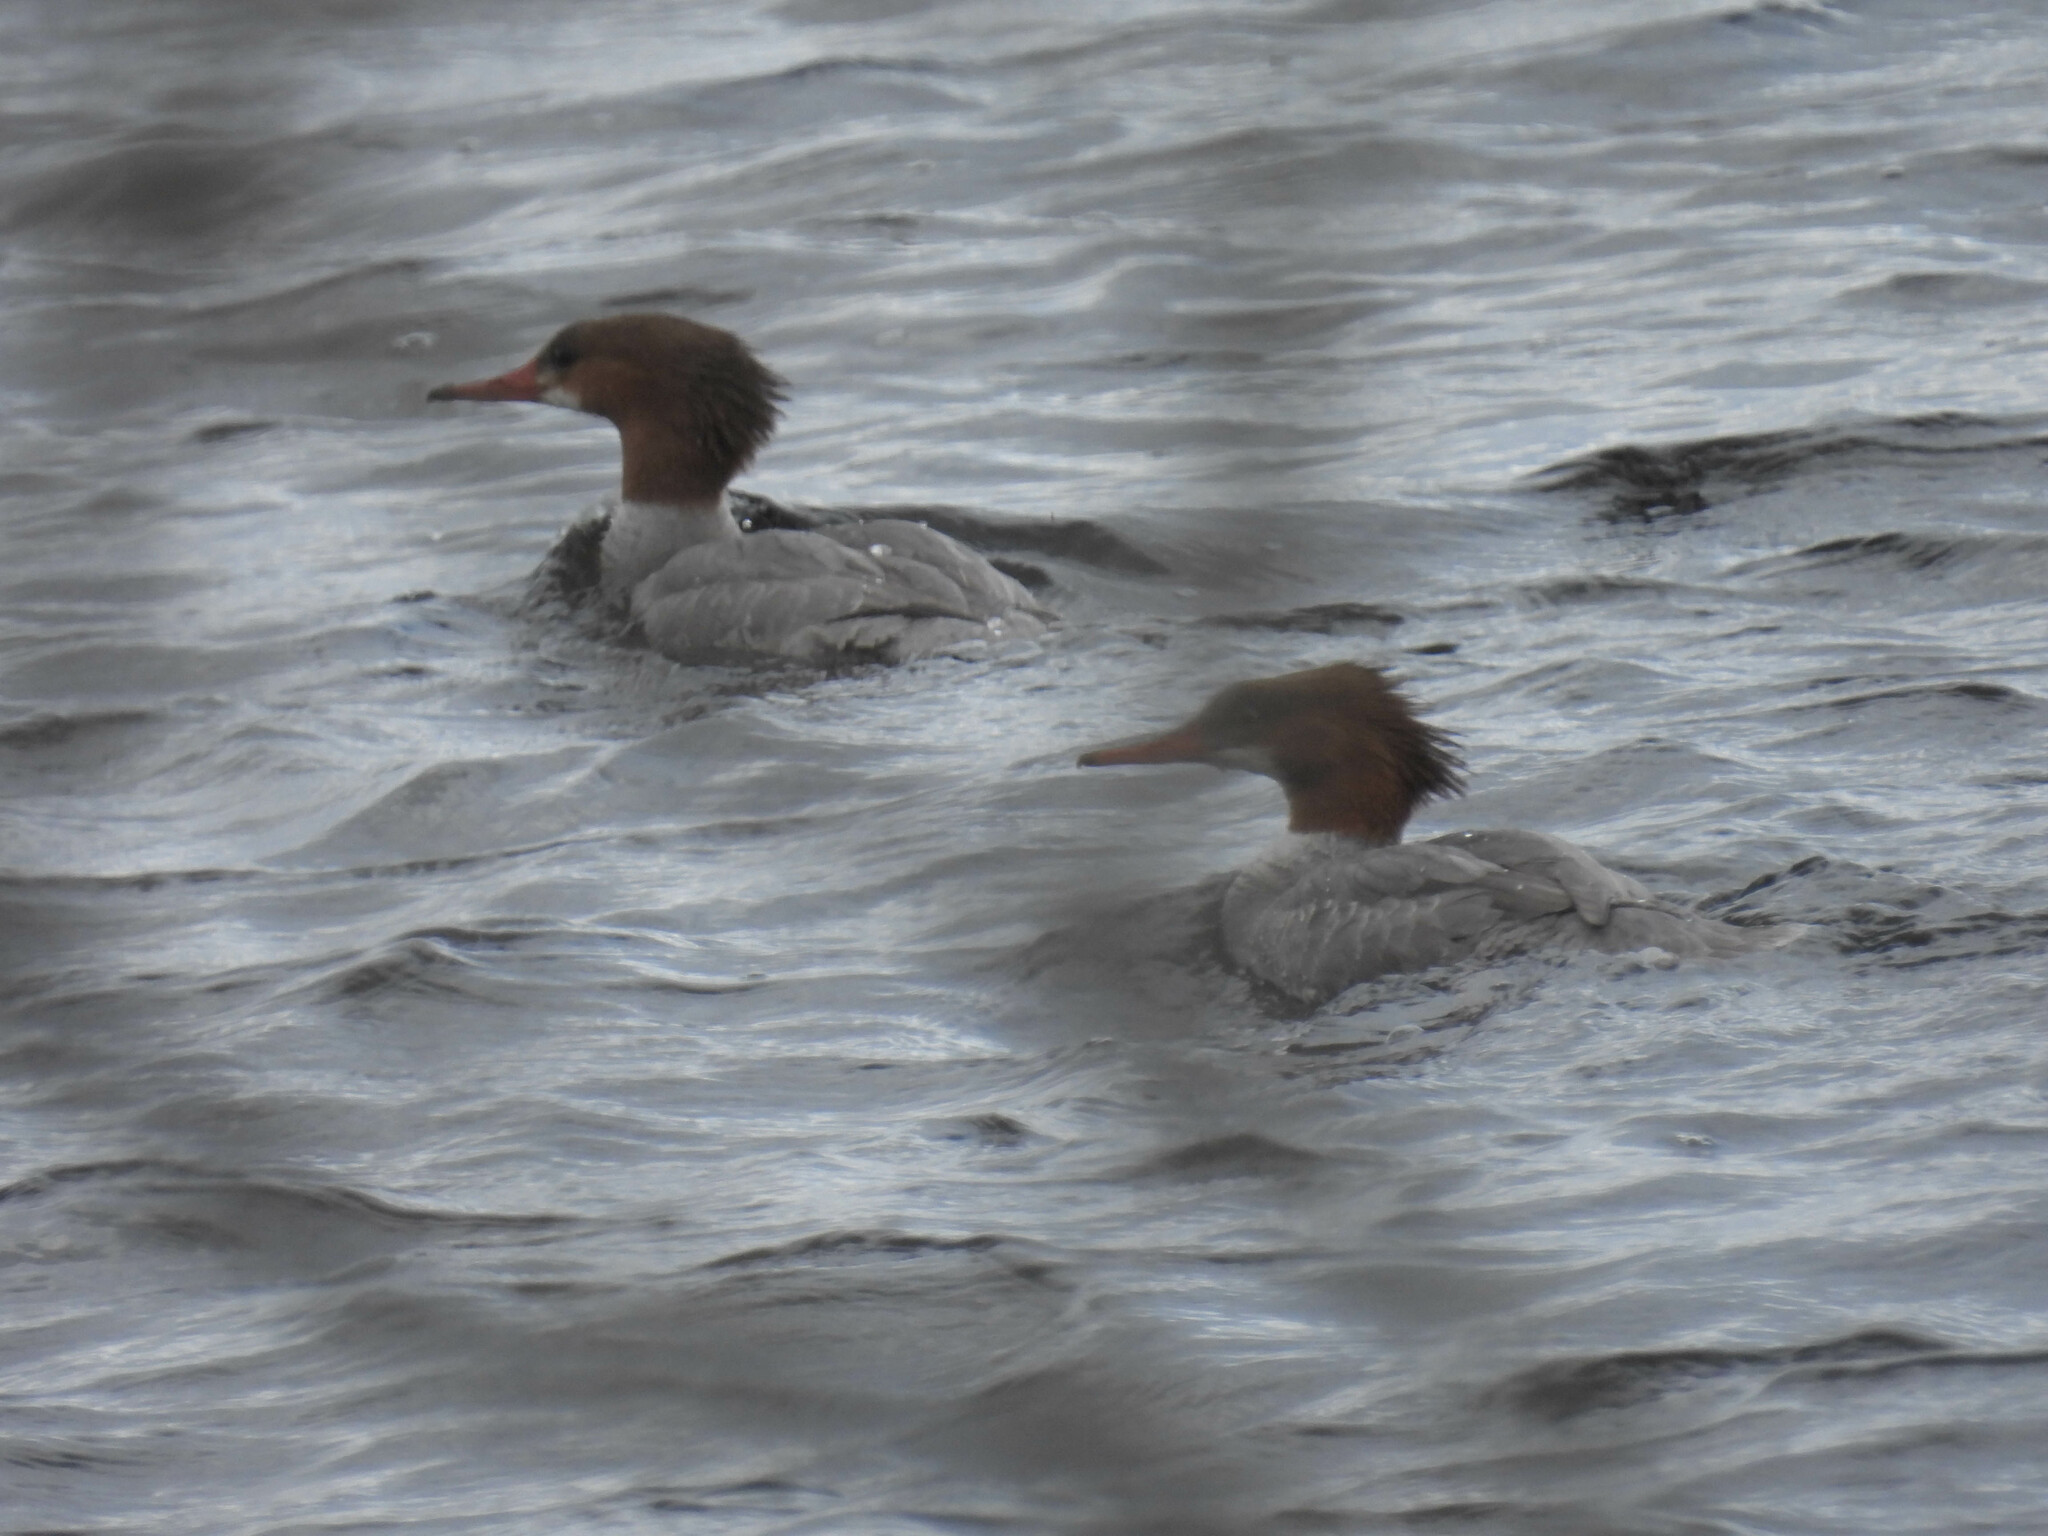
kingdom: Animalia
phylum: Chordata
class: Aves
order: Anseriformes
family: Anatidae
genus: Mergus
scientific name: Mergus merganser
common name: Common merganser
